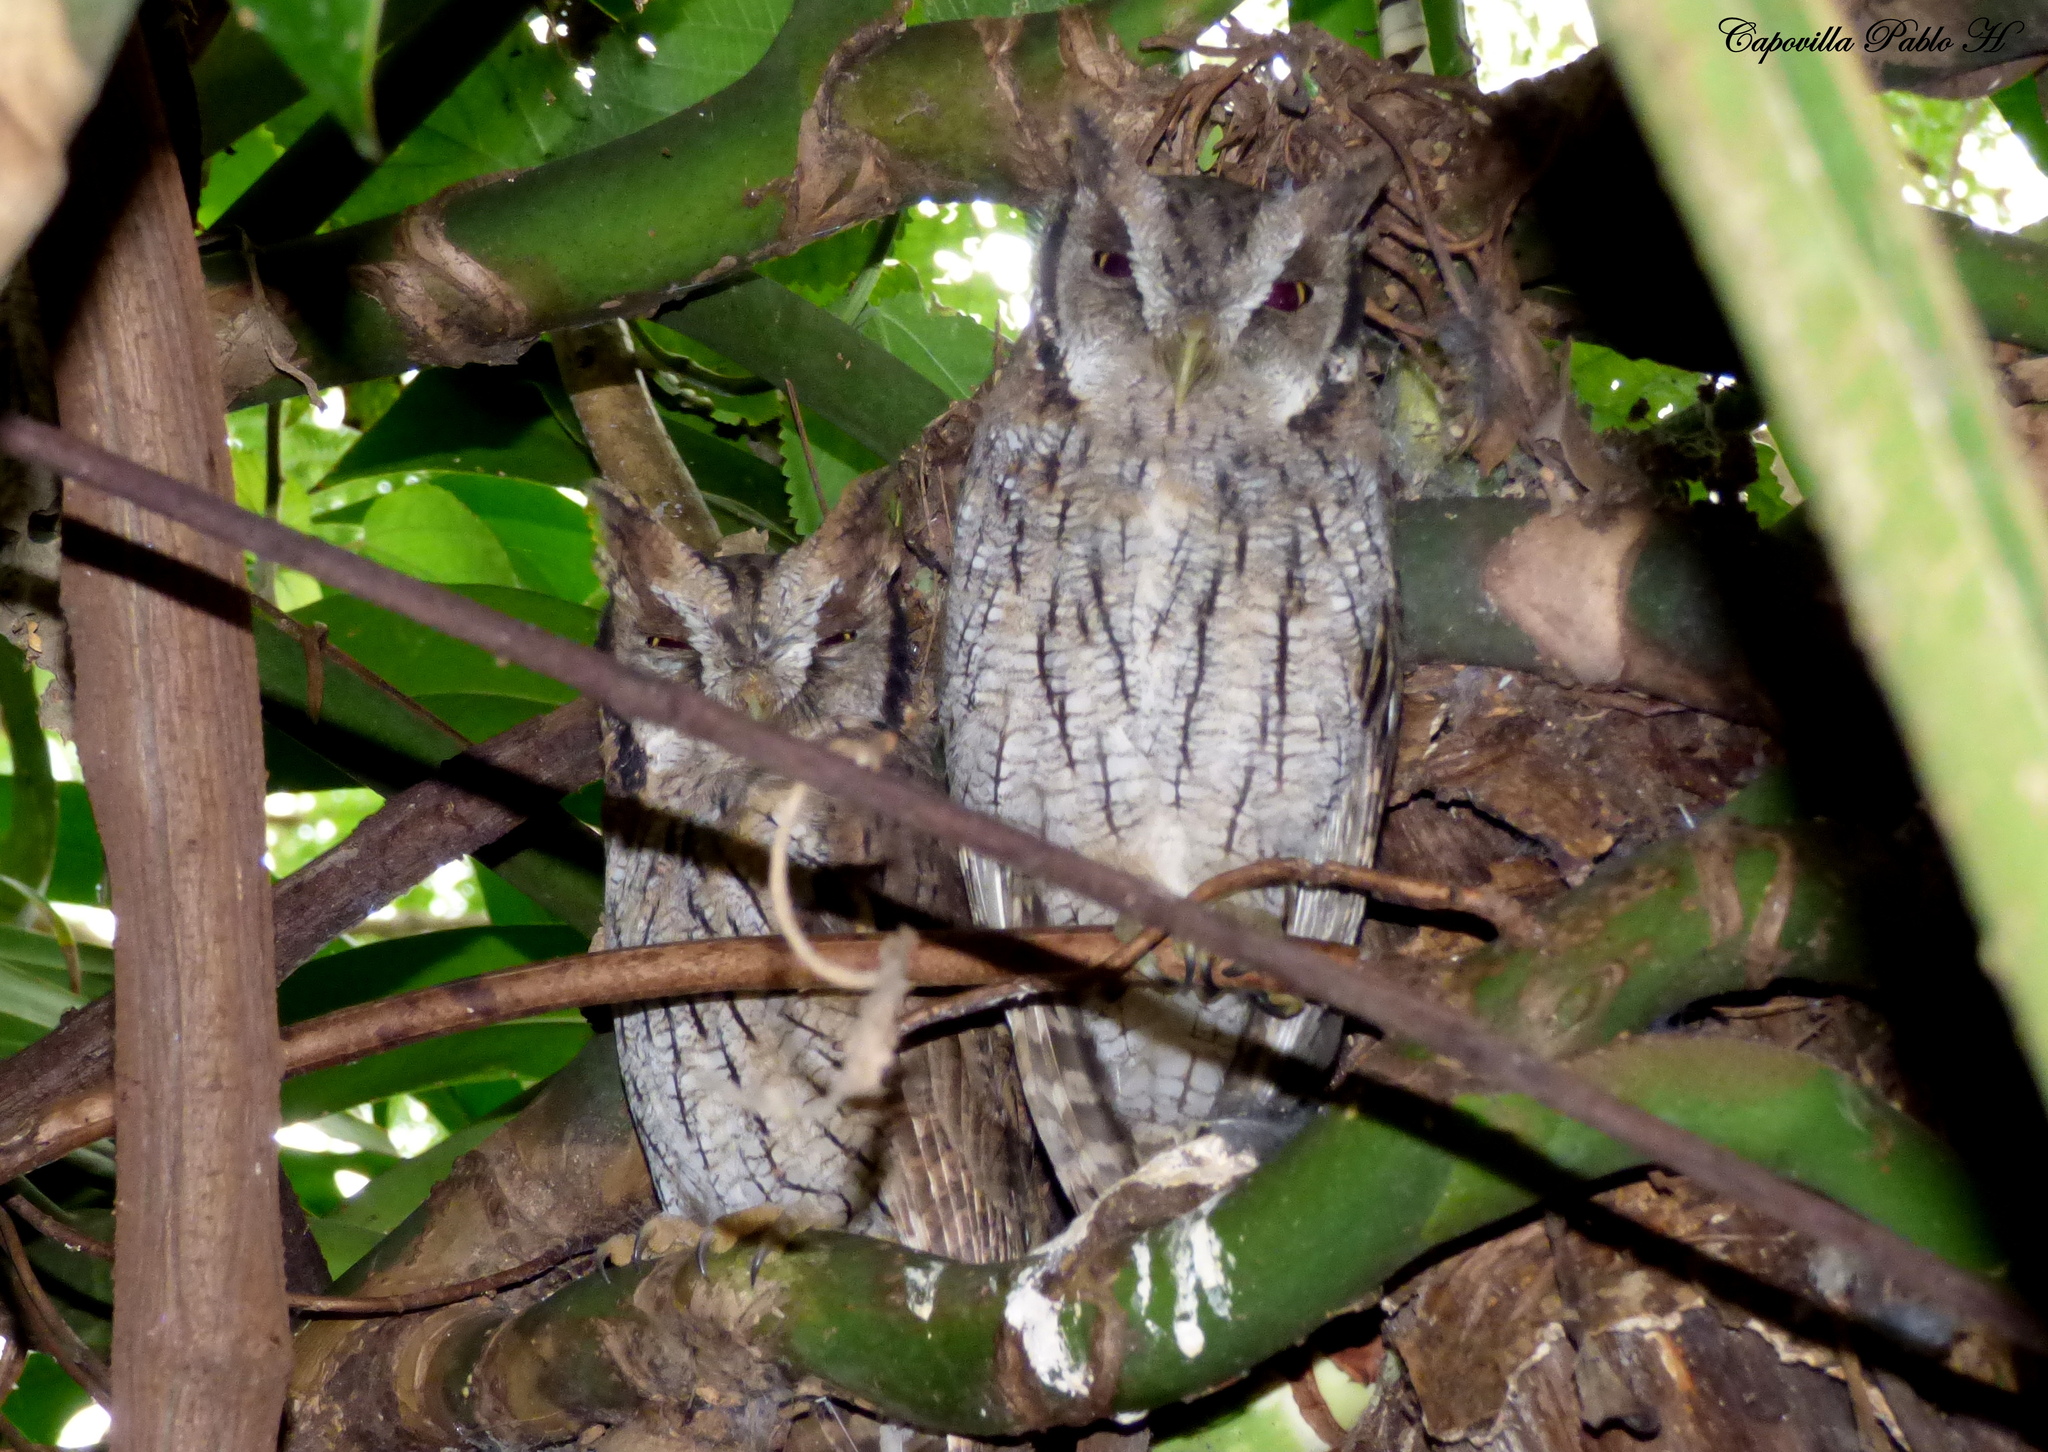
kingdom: Animalia
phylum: Chordata
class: Aves
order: Strigiformes
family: Strigidae
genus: Megascops
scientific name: Megascops choliba
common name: Tropical screech-owl
